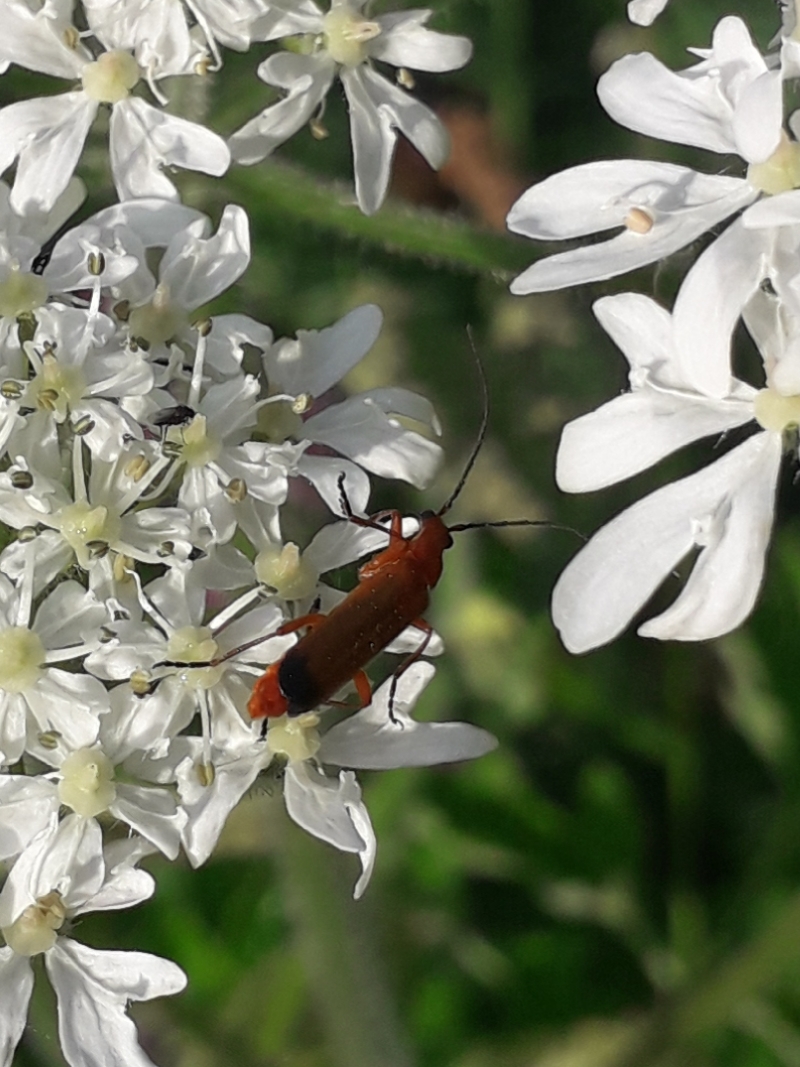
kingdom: Animalia
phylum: Arthropoda
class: Insecta
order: Coleoptera
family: Cantharidae
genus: Rhagonycha
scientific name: Rhagonycha fulva
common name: Common red soldier beetle
